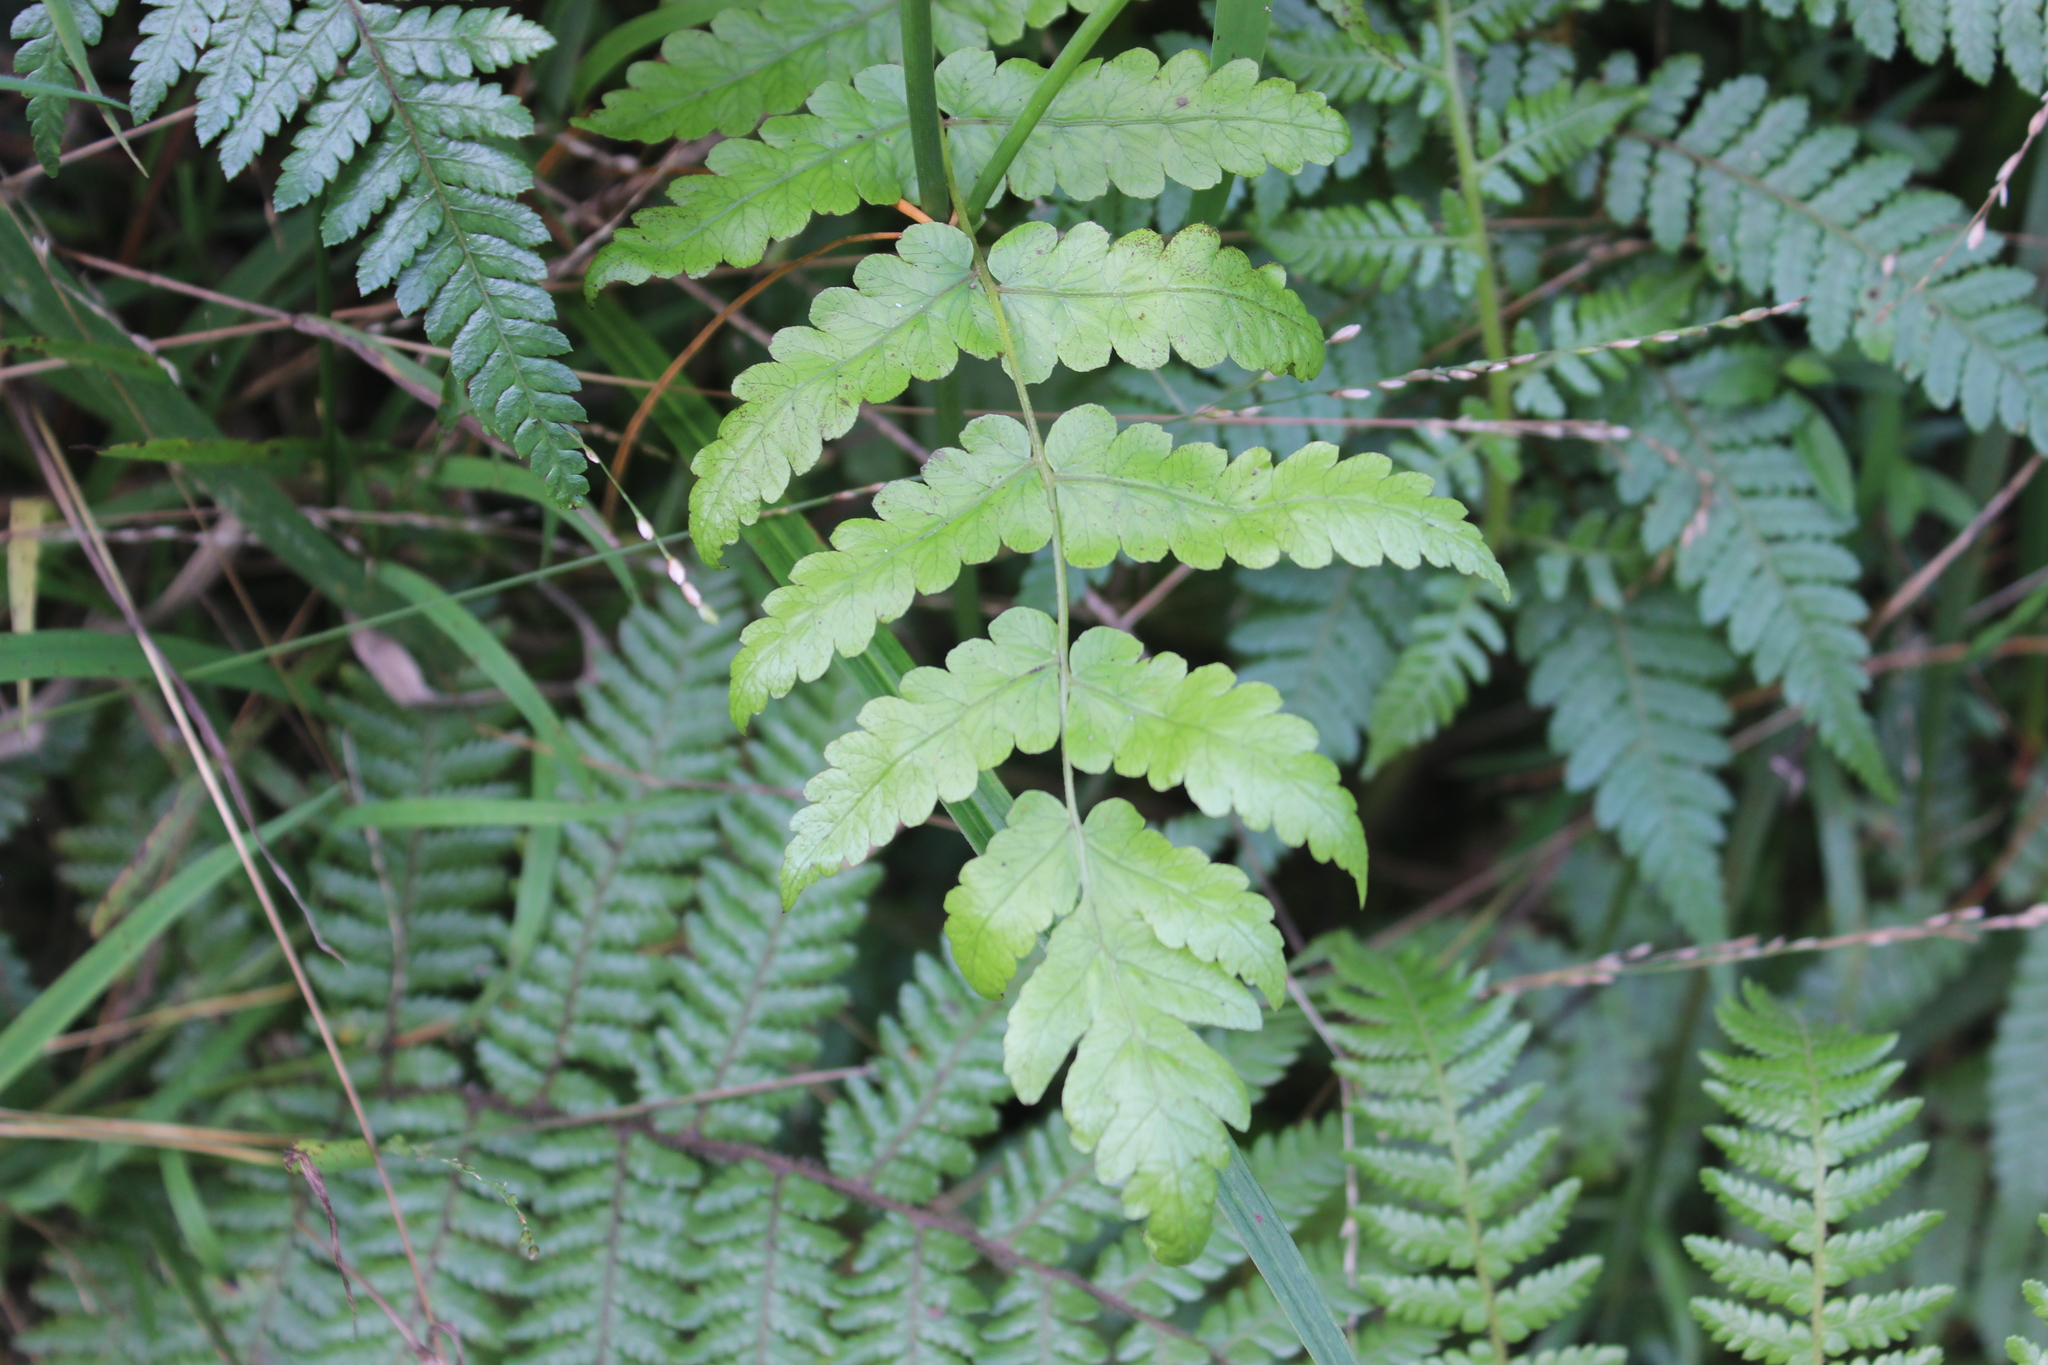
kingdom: Plantae
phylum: Tracheophyta
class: Polypodiopsida
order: Polypodiales
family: Thelypteridaceae
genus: Pakau
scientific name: Pakau pennigera
